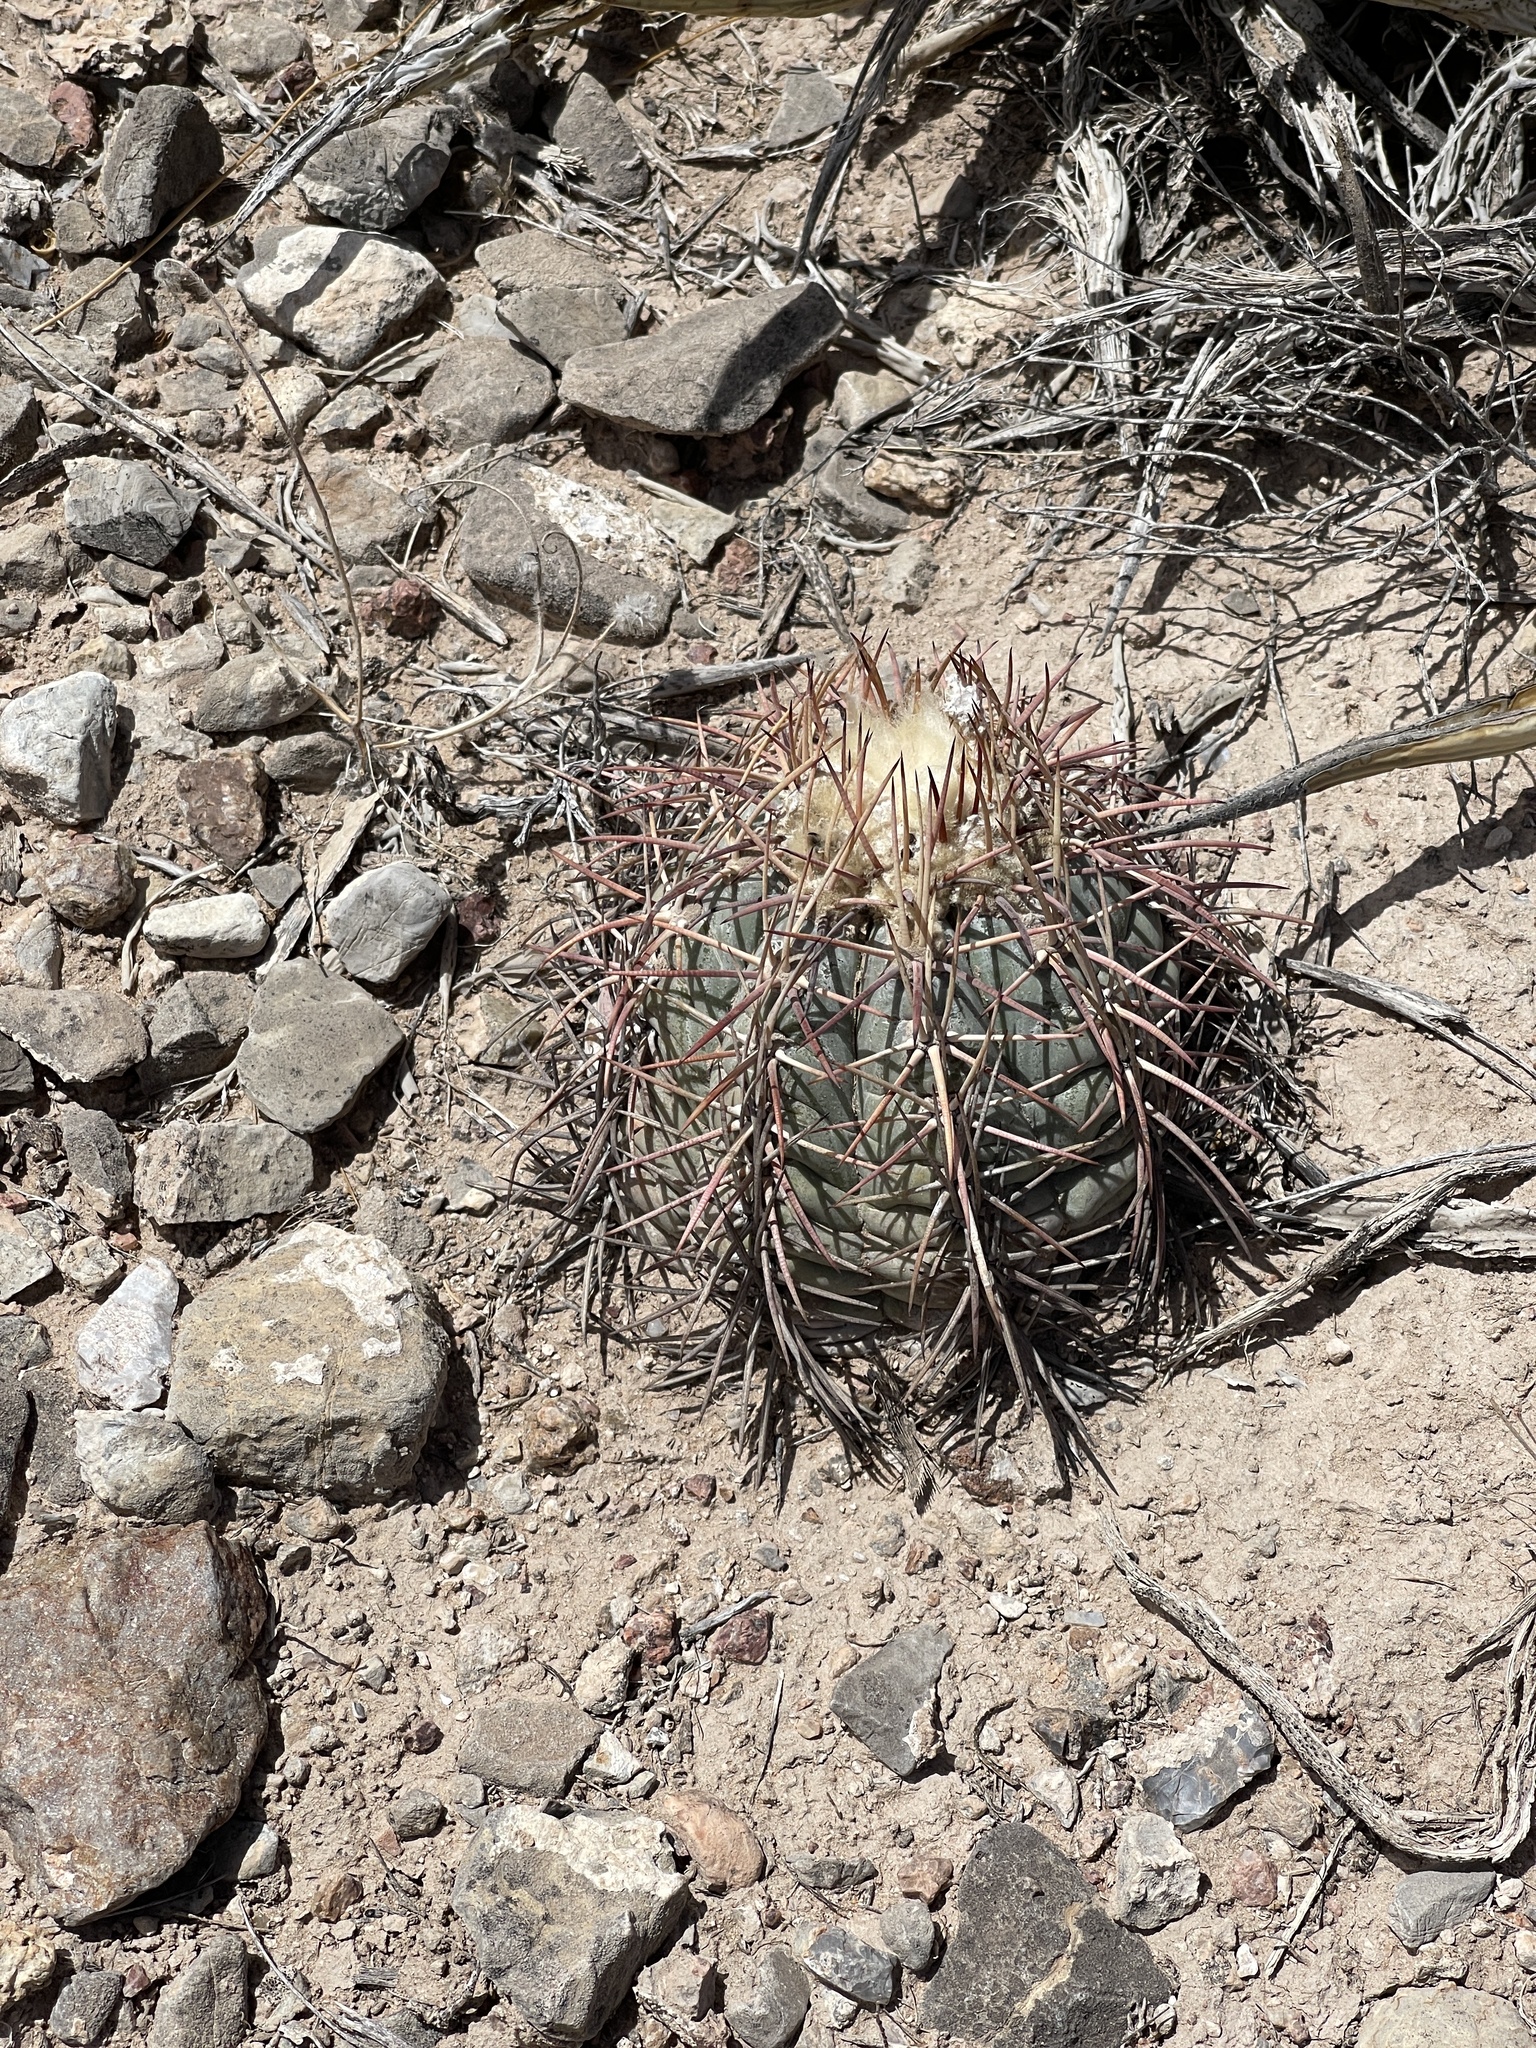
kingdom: Plantae
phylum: Tracheophyta
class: Magnoliopsida
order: Caryophyllales
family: Cactaceae
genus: Echinocactus
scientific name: Echinocactus horizonthalonius
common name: Devilshead
